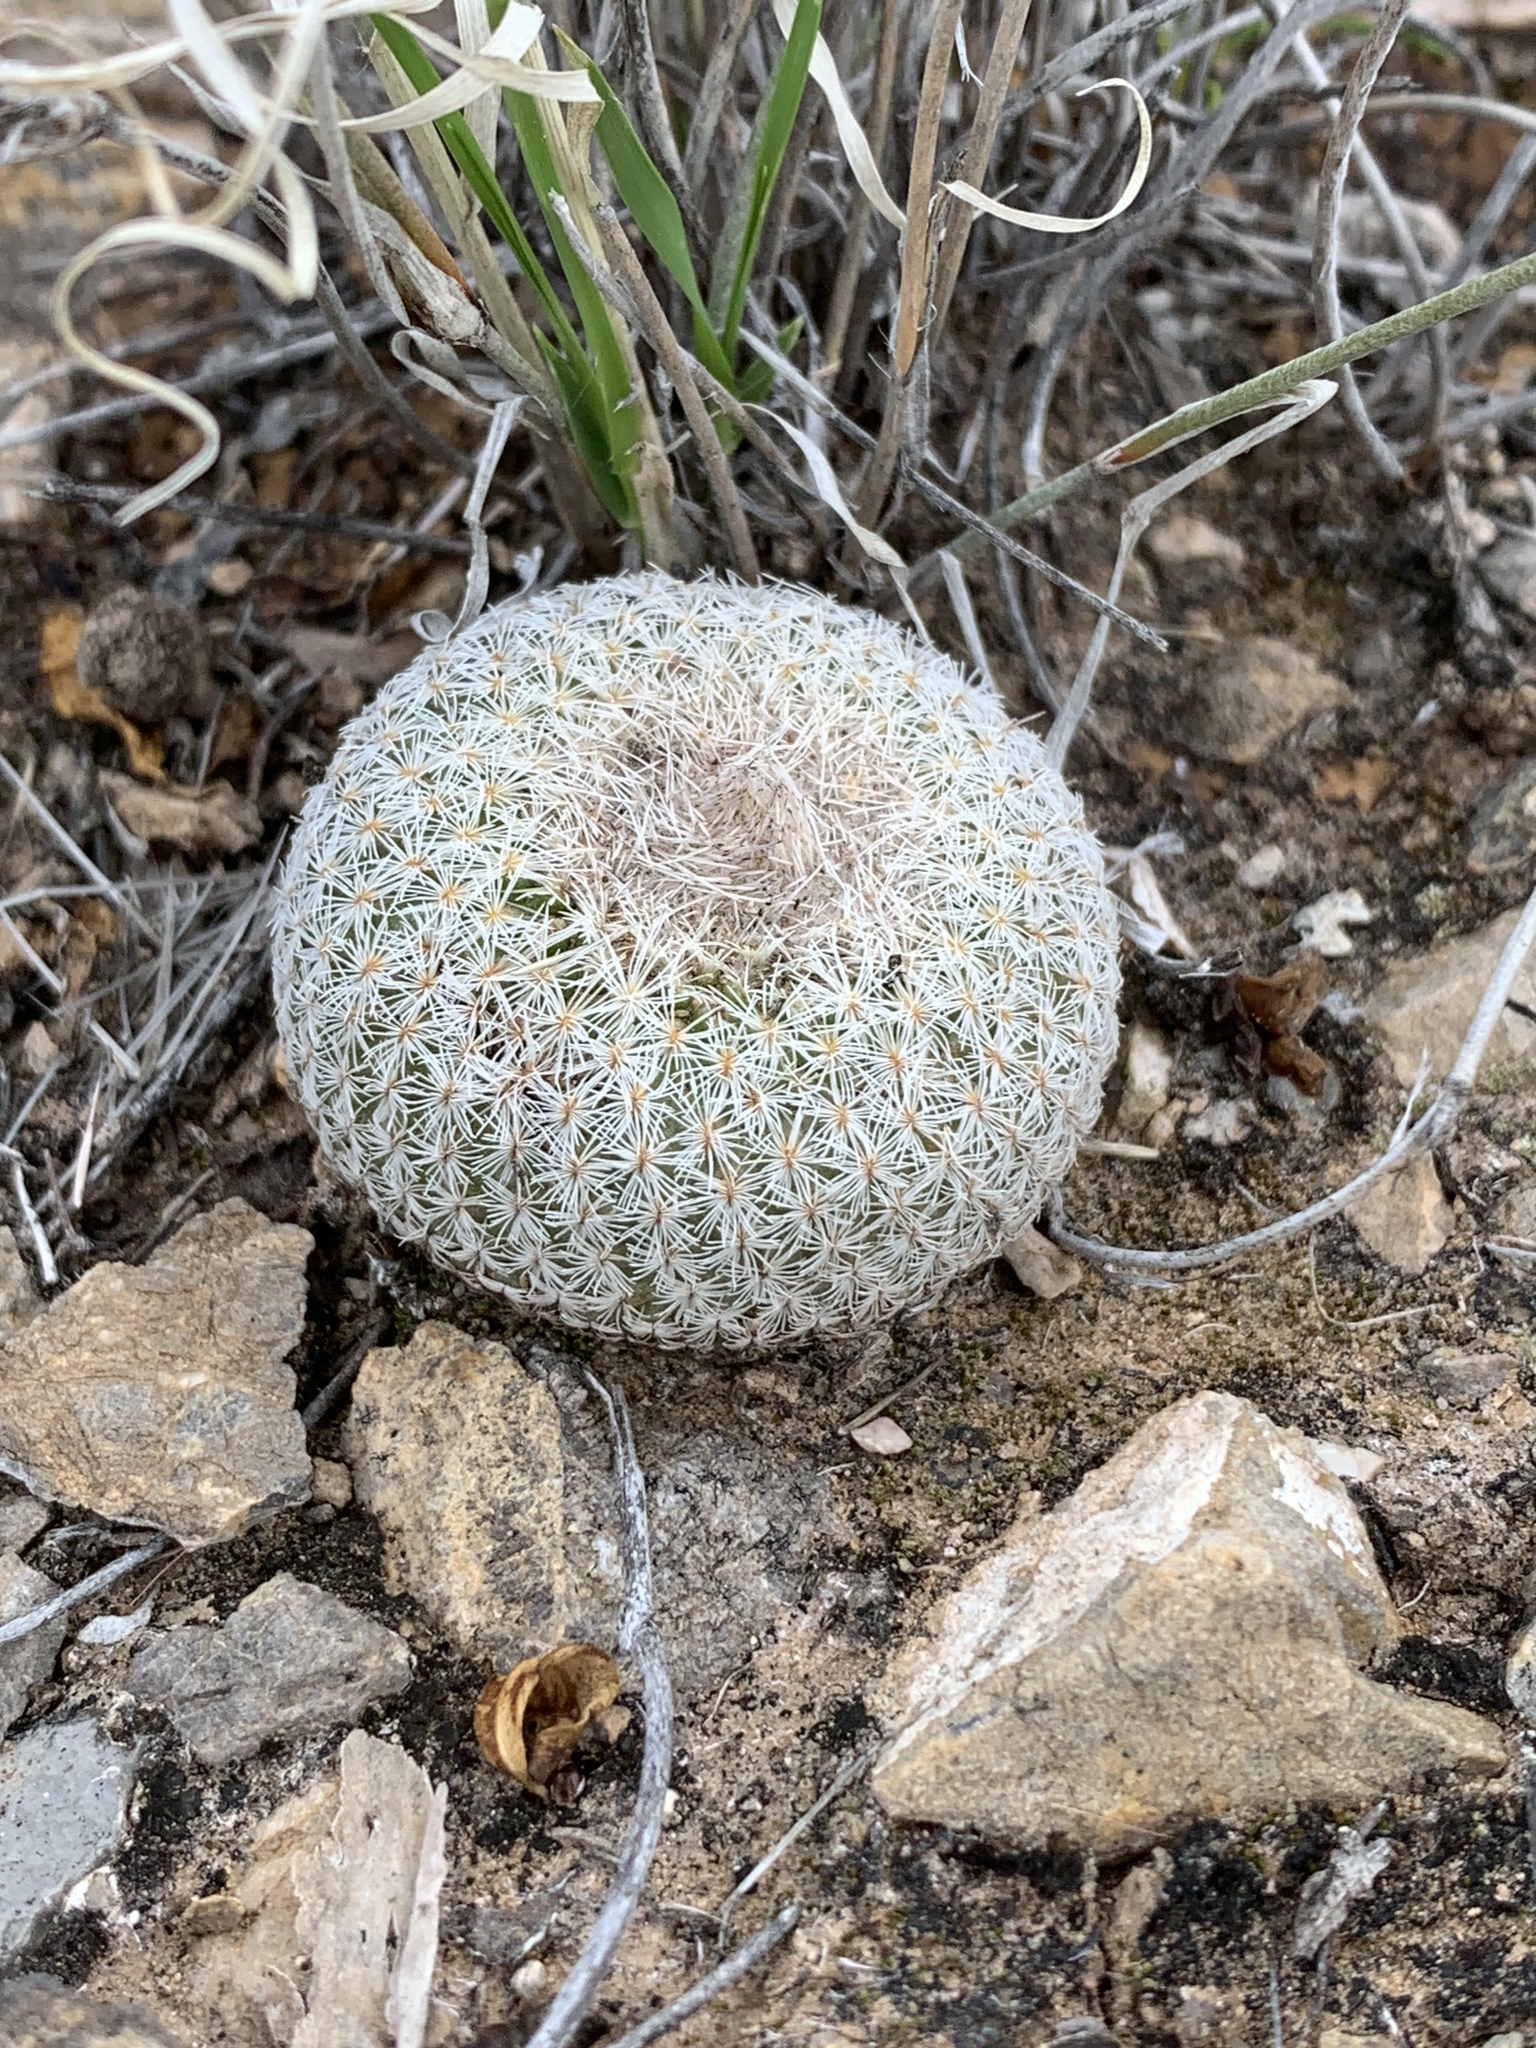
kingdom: Plantae
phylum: Tracheophyta
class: Magnoliopsida
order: Caryophyllales
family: Cactaceae
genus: Epithelantha
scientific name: Epithelantha micromeris
